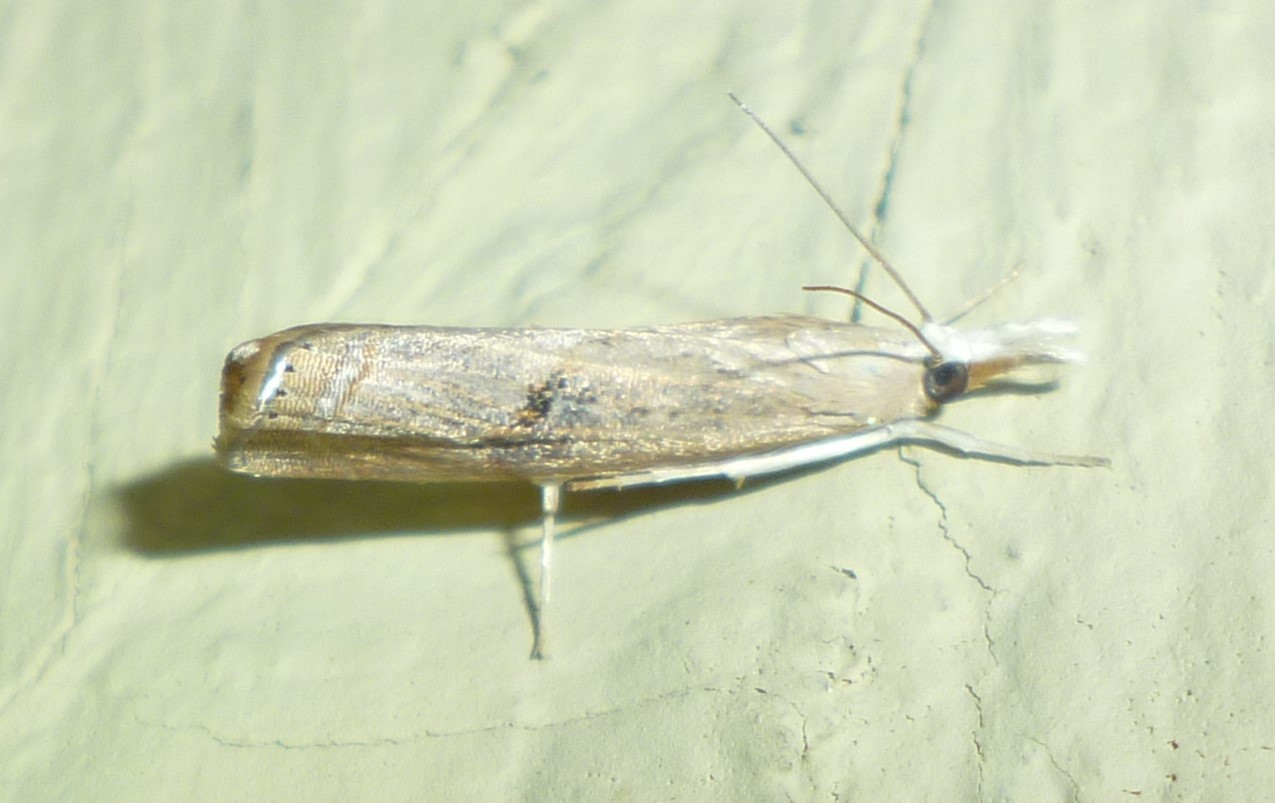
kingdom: Animalia
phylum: Arthropoda
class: Insecta
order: Lepidoptera
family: Crambidae
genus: Parapediasia
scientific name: Parapediasia teterellus
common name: Bluegrass webworm moth
